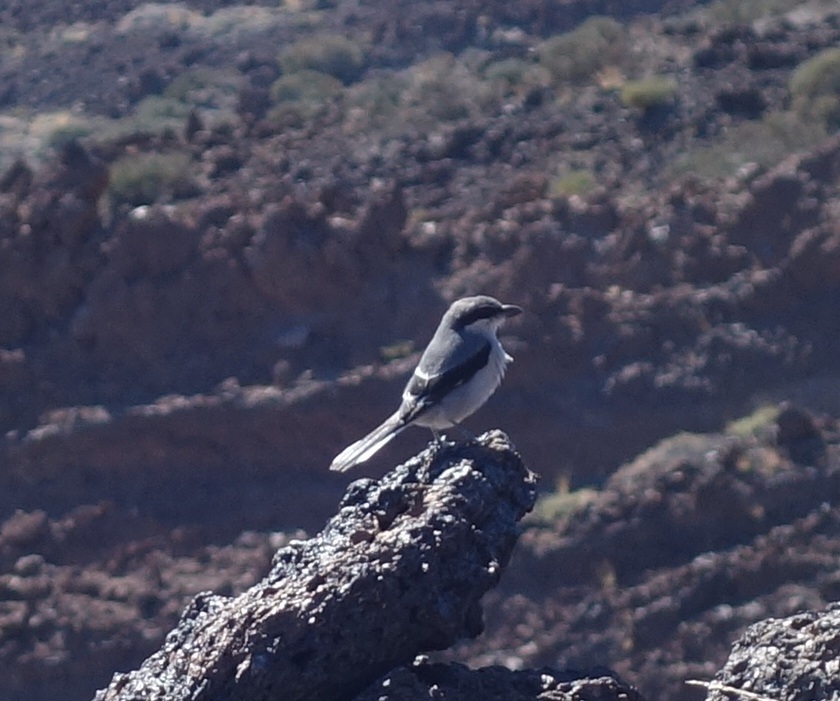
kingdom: Animalia
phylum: Chordata
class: Aves
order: Passeriformes
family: Laniidae
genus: Lanius
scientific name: Lanius excubitor
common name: Great grey shrike
